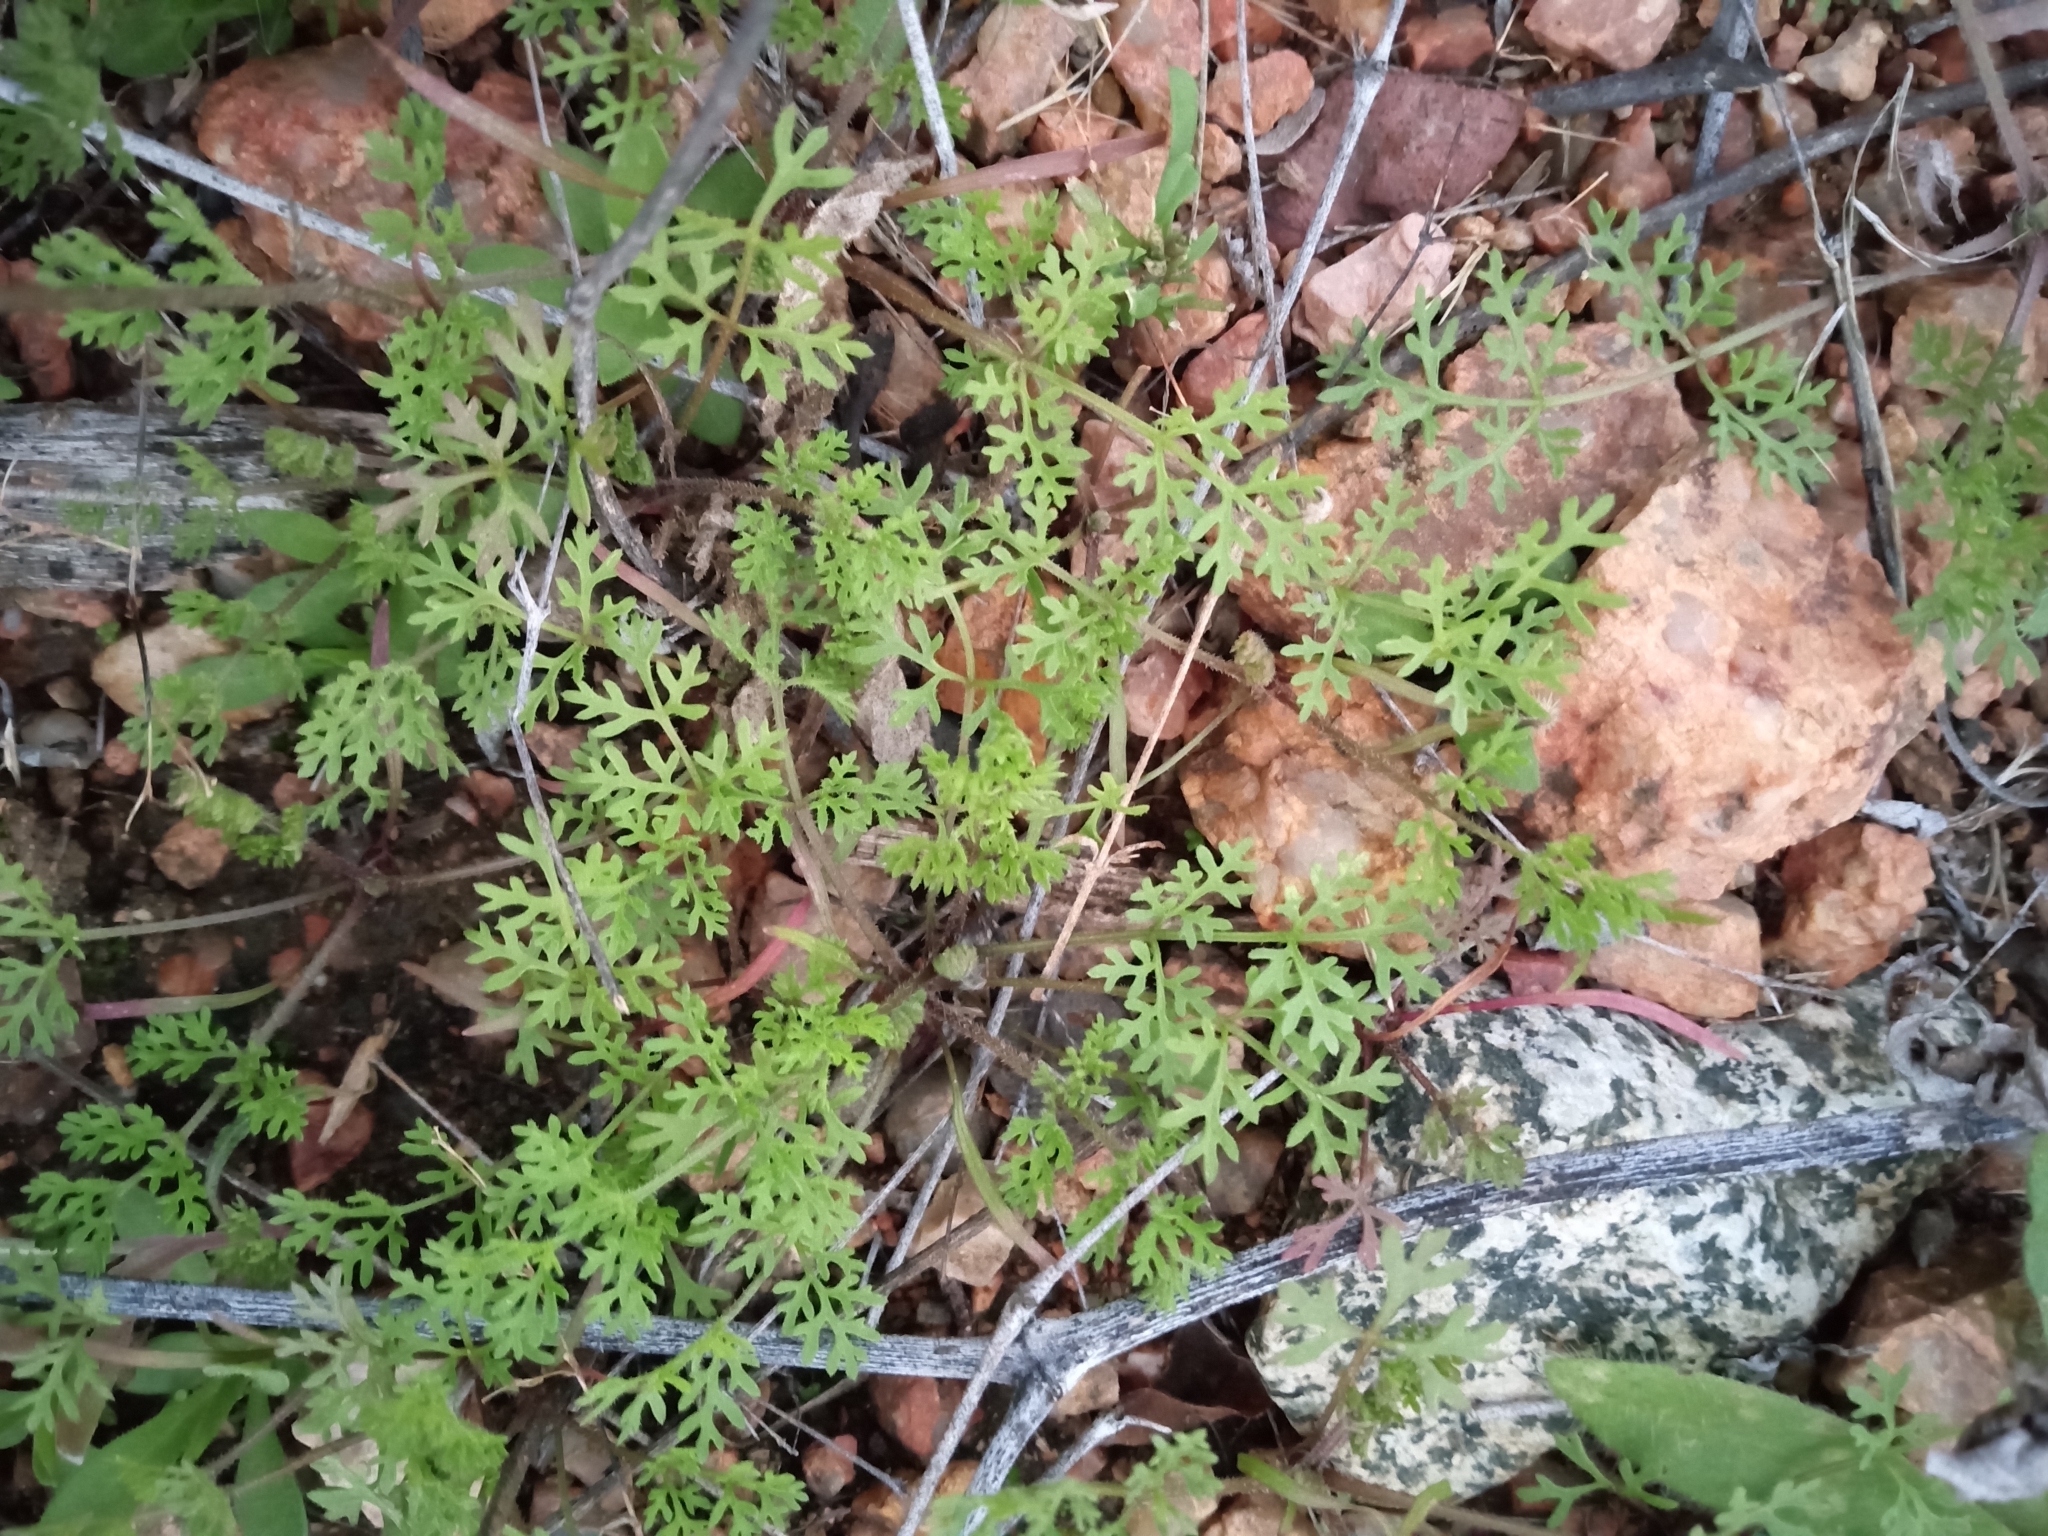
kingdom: Plantae
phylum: Tracheophyta
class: Magnoliopsida
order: Asterales
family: Asteraceae
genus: Oncosiphon
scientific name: Oncosiphon pilulifer
